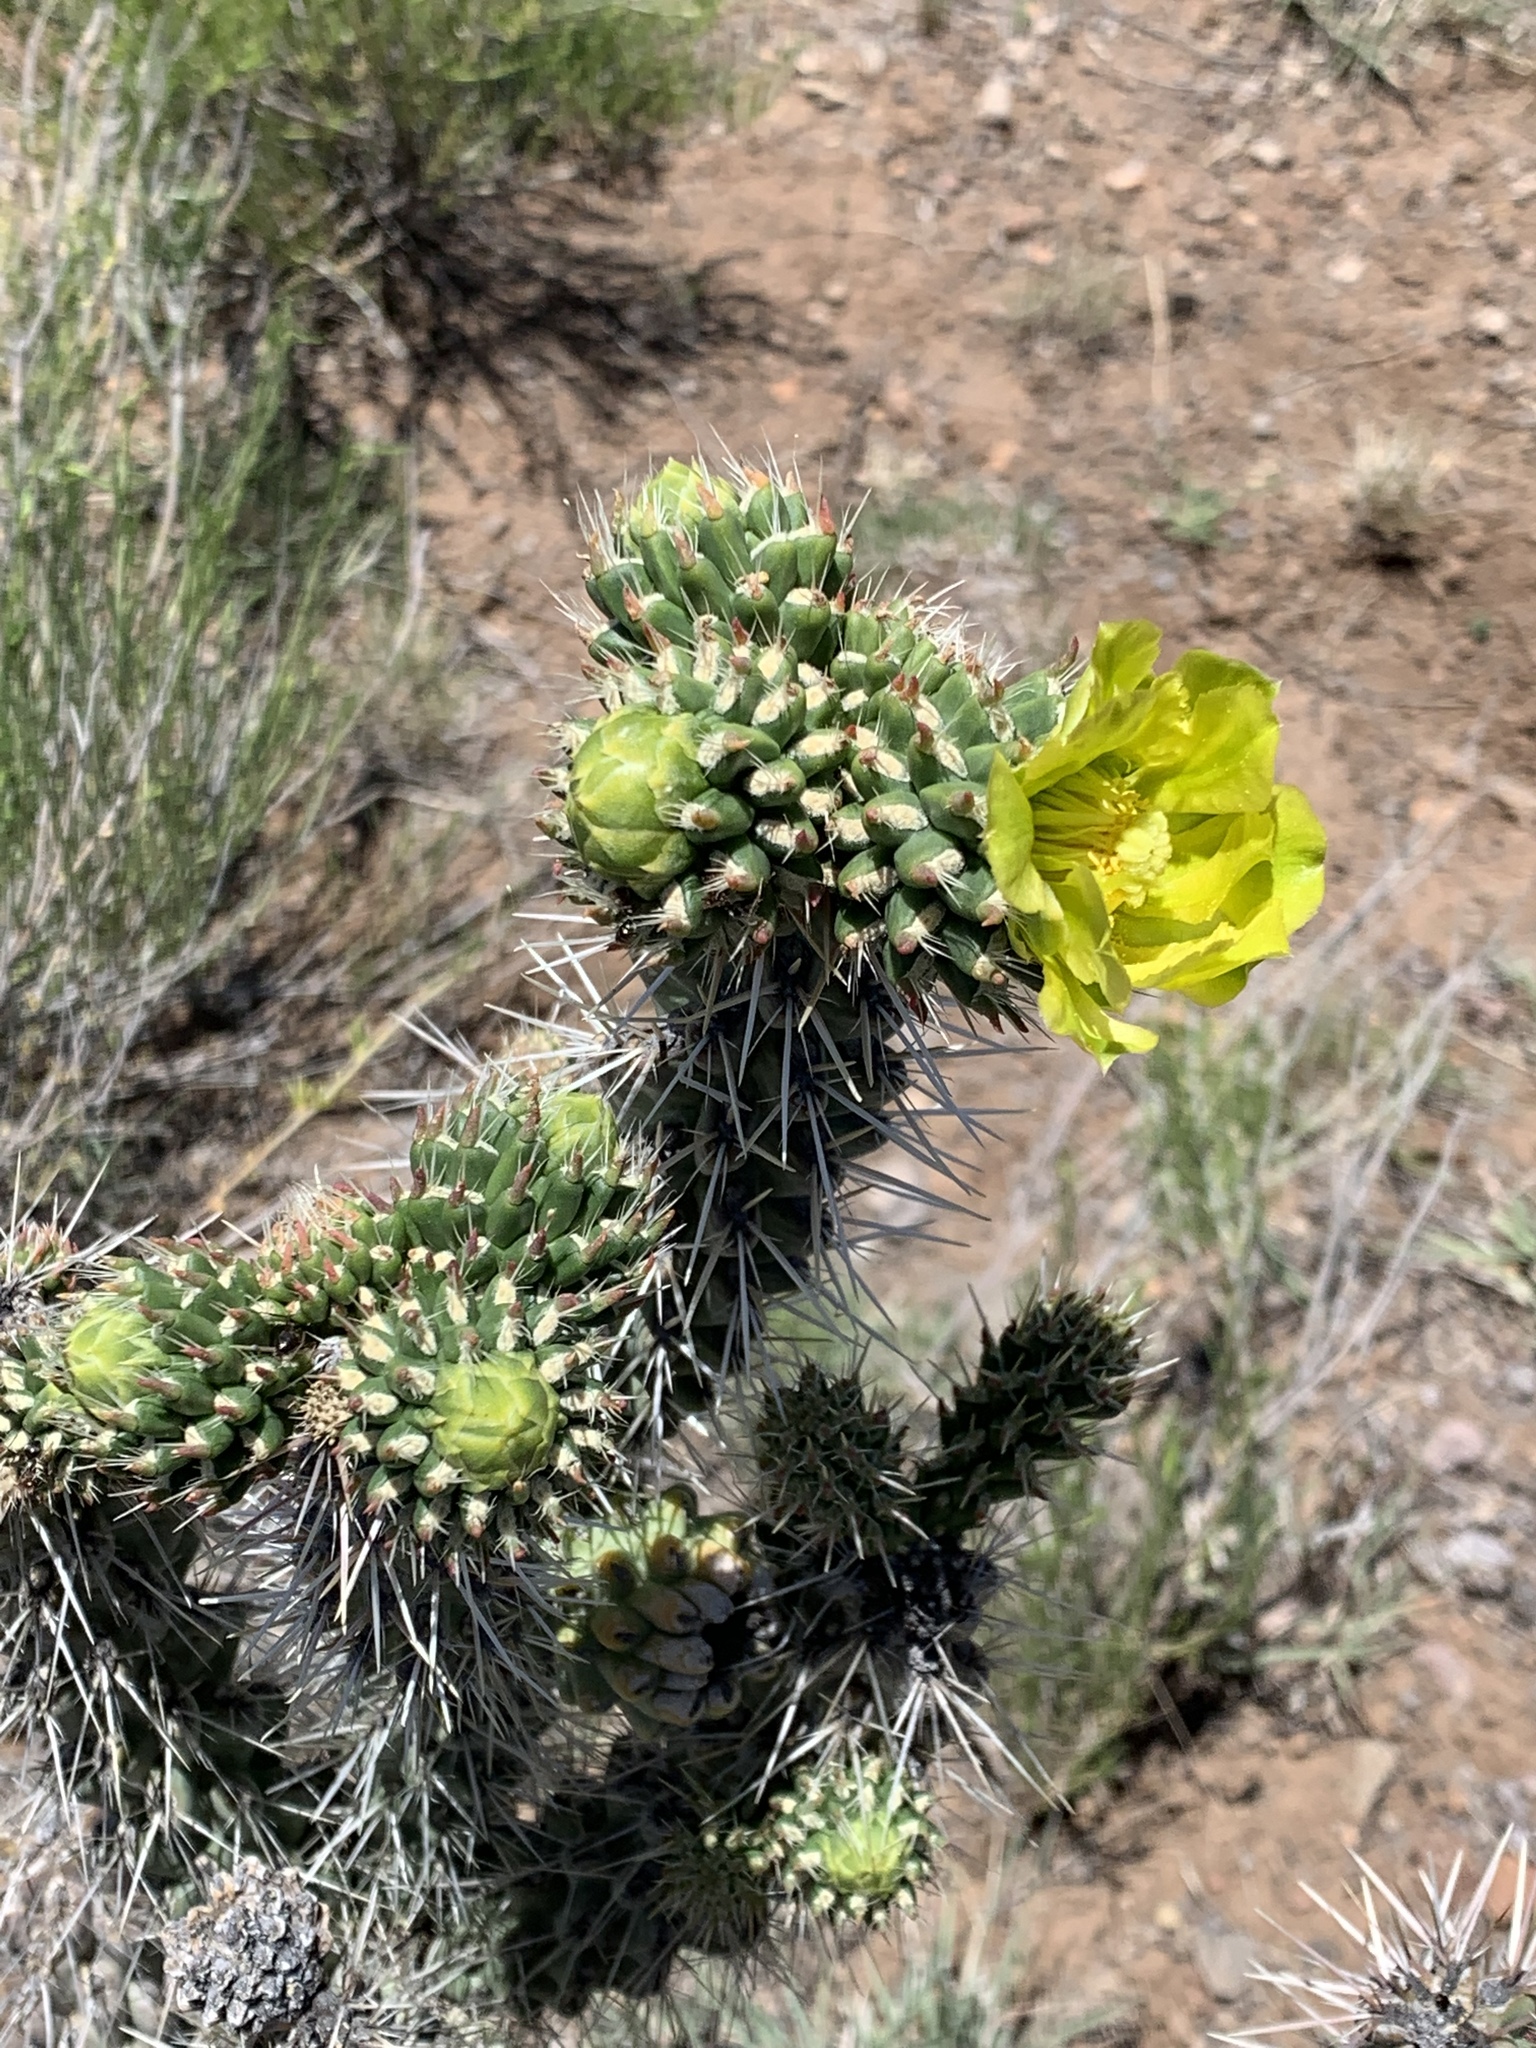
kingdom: Plantae
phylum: Tracheophyta
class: Magnoliopsida
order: Caryophyllales
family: Cactaceae
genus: Cylindropuntia
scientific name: Cylindropuntia whipplei
